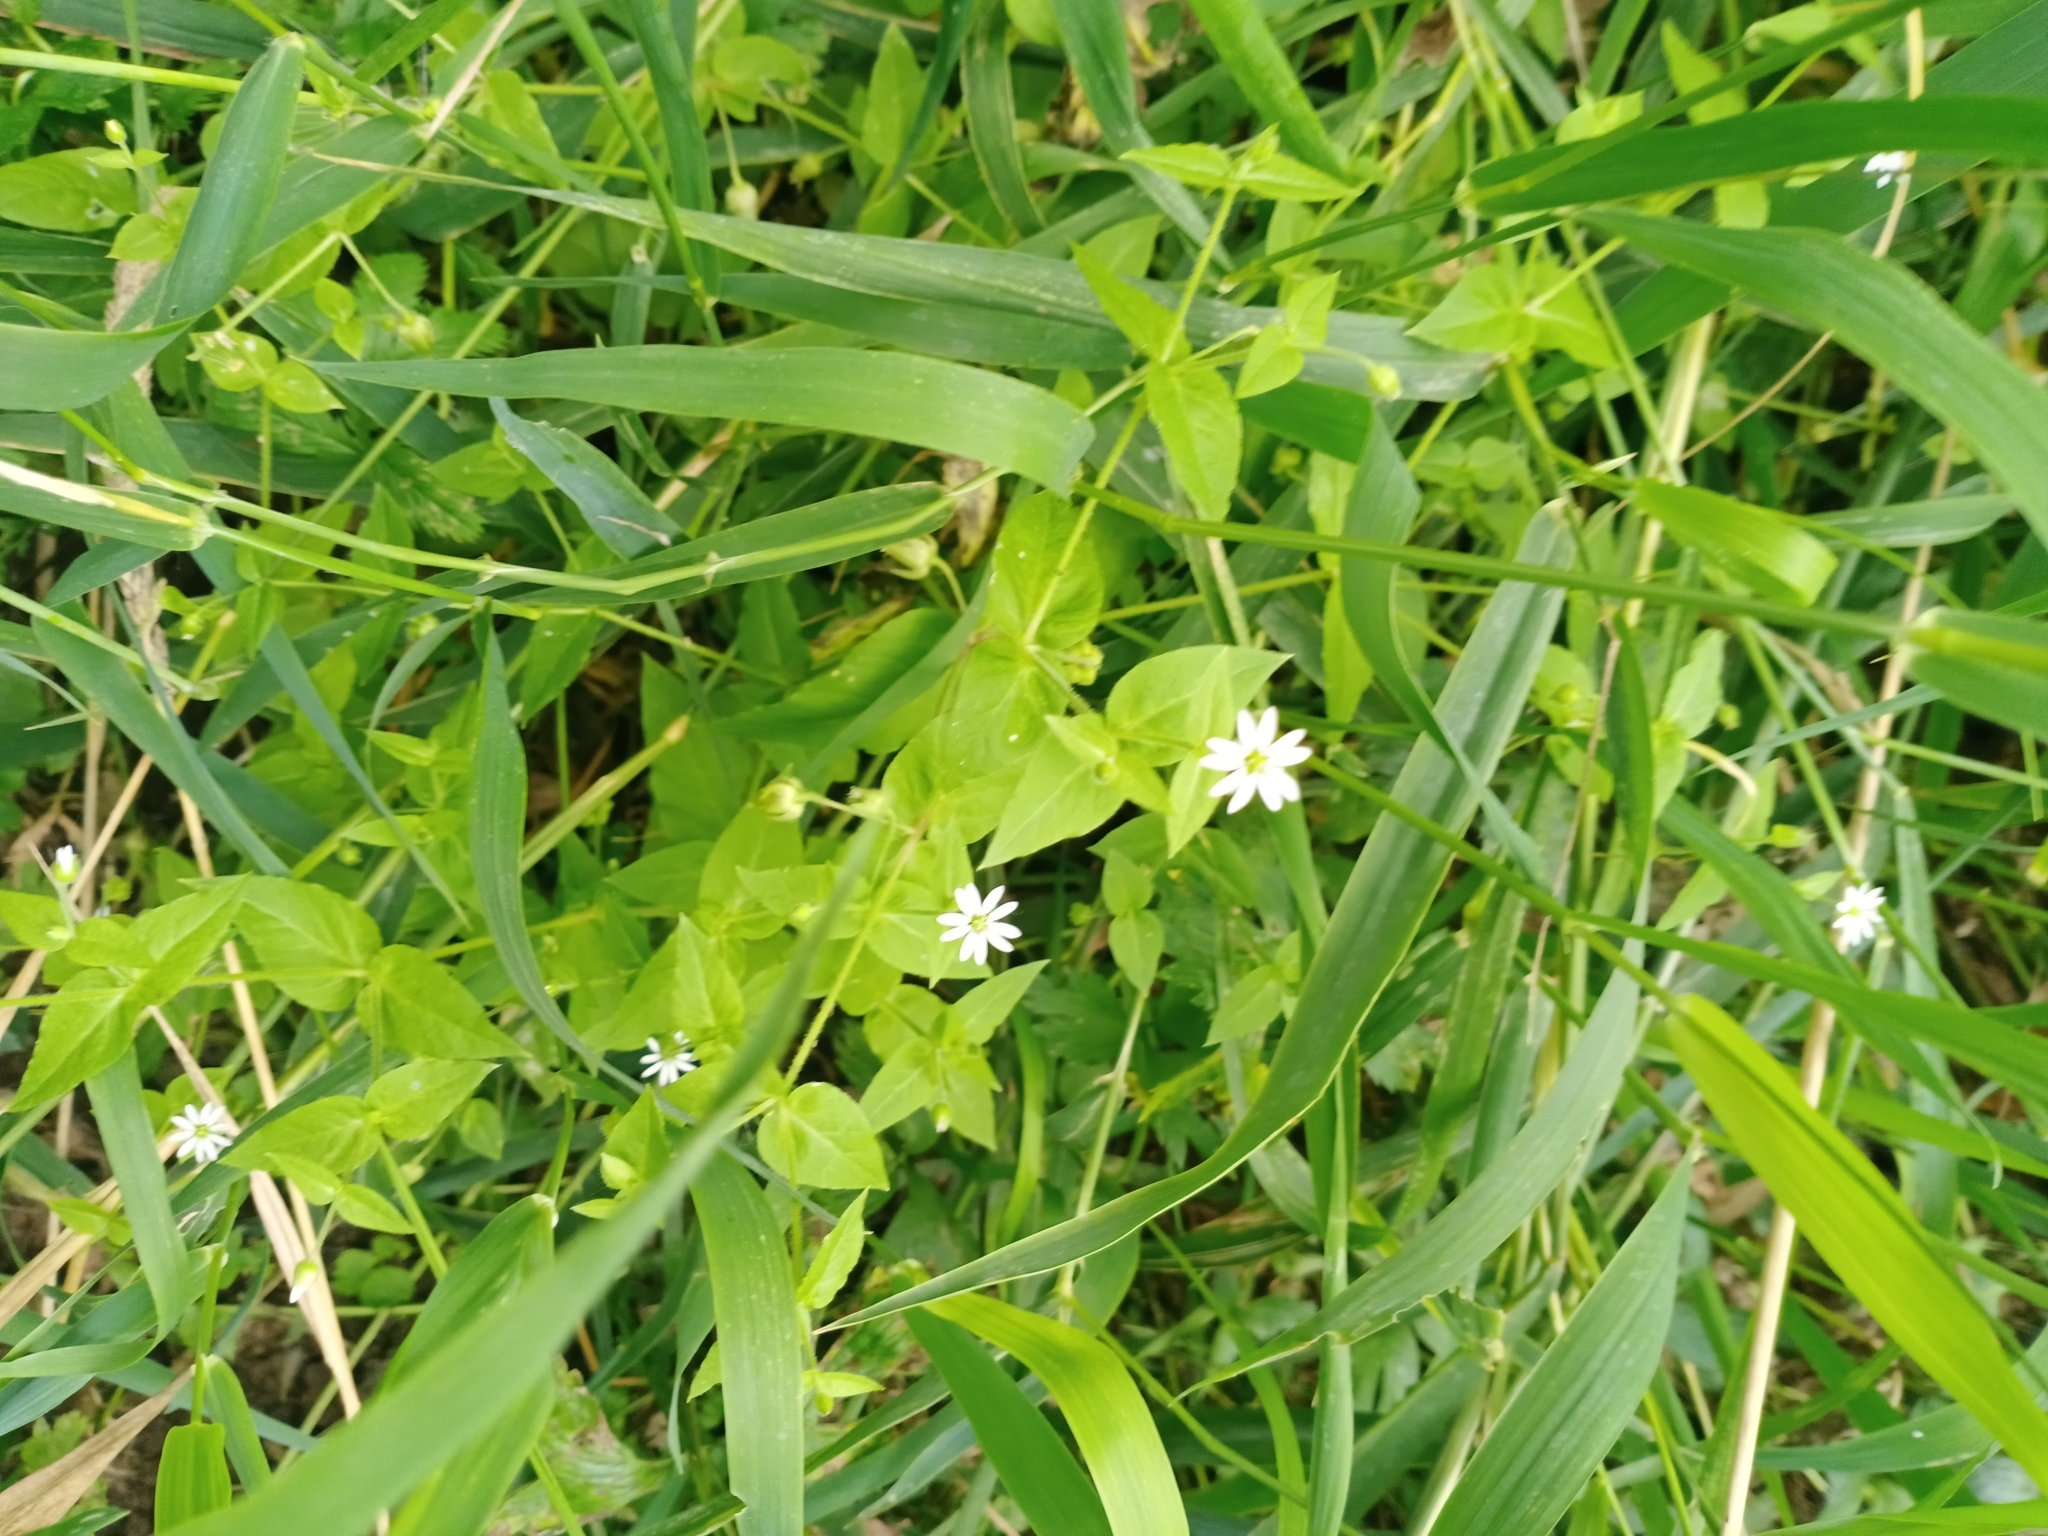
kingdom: Plantae
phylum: Tracheophyta
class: Magnoliopsida
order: Caryophyllales
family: Caryophyllaceae
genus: Stellaria
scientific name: Stellaria aquatica
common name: Water chickweed
